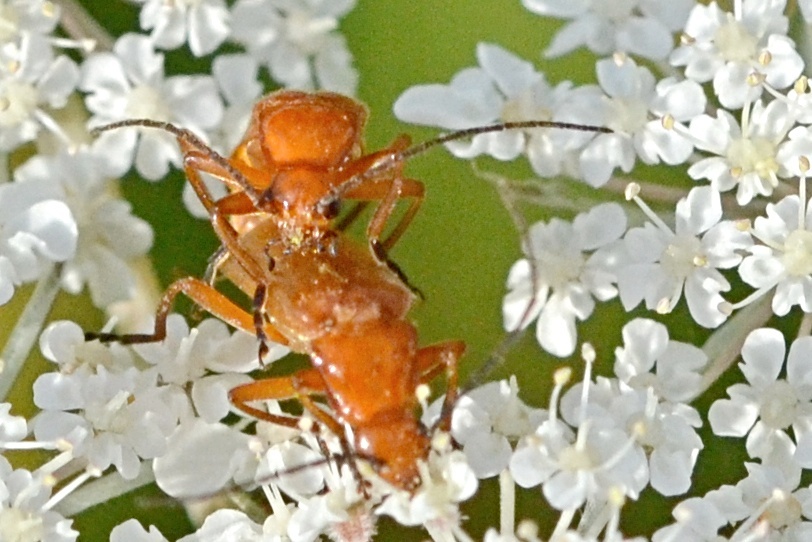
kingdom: Animalia
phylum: Arthropoda
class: Insecta
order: Coleoptera
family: Cantharidae
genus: Rhagonycha
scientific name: Rhagonycha fulva
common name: Common red soldier beetle
